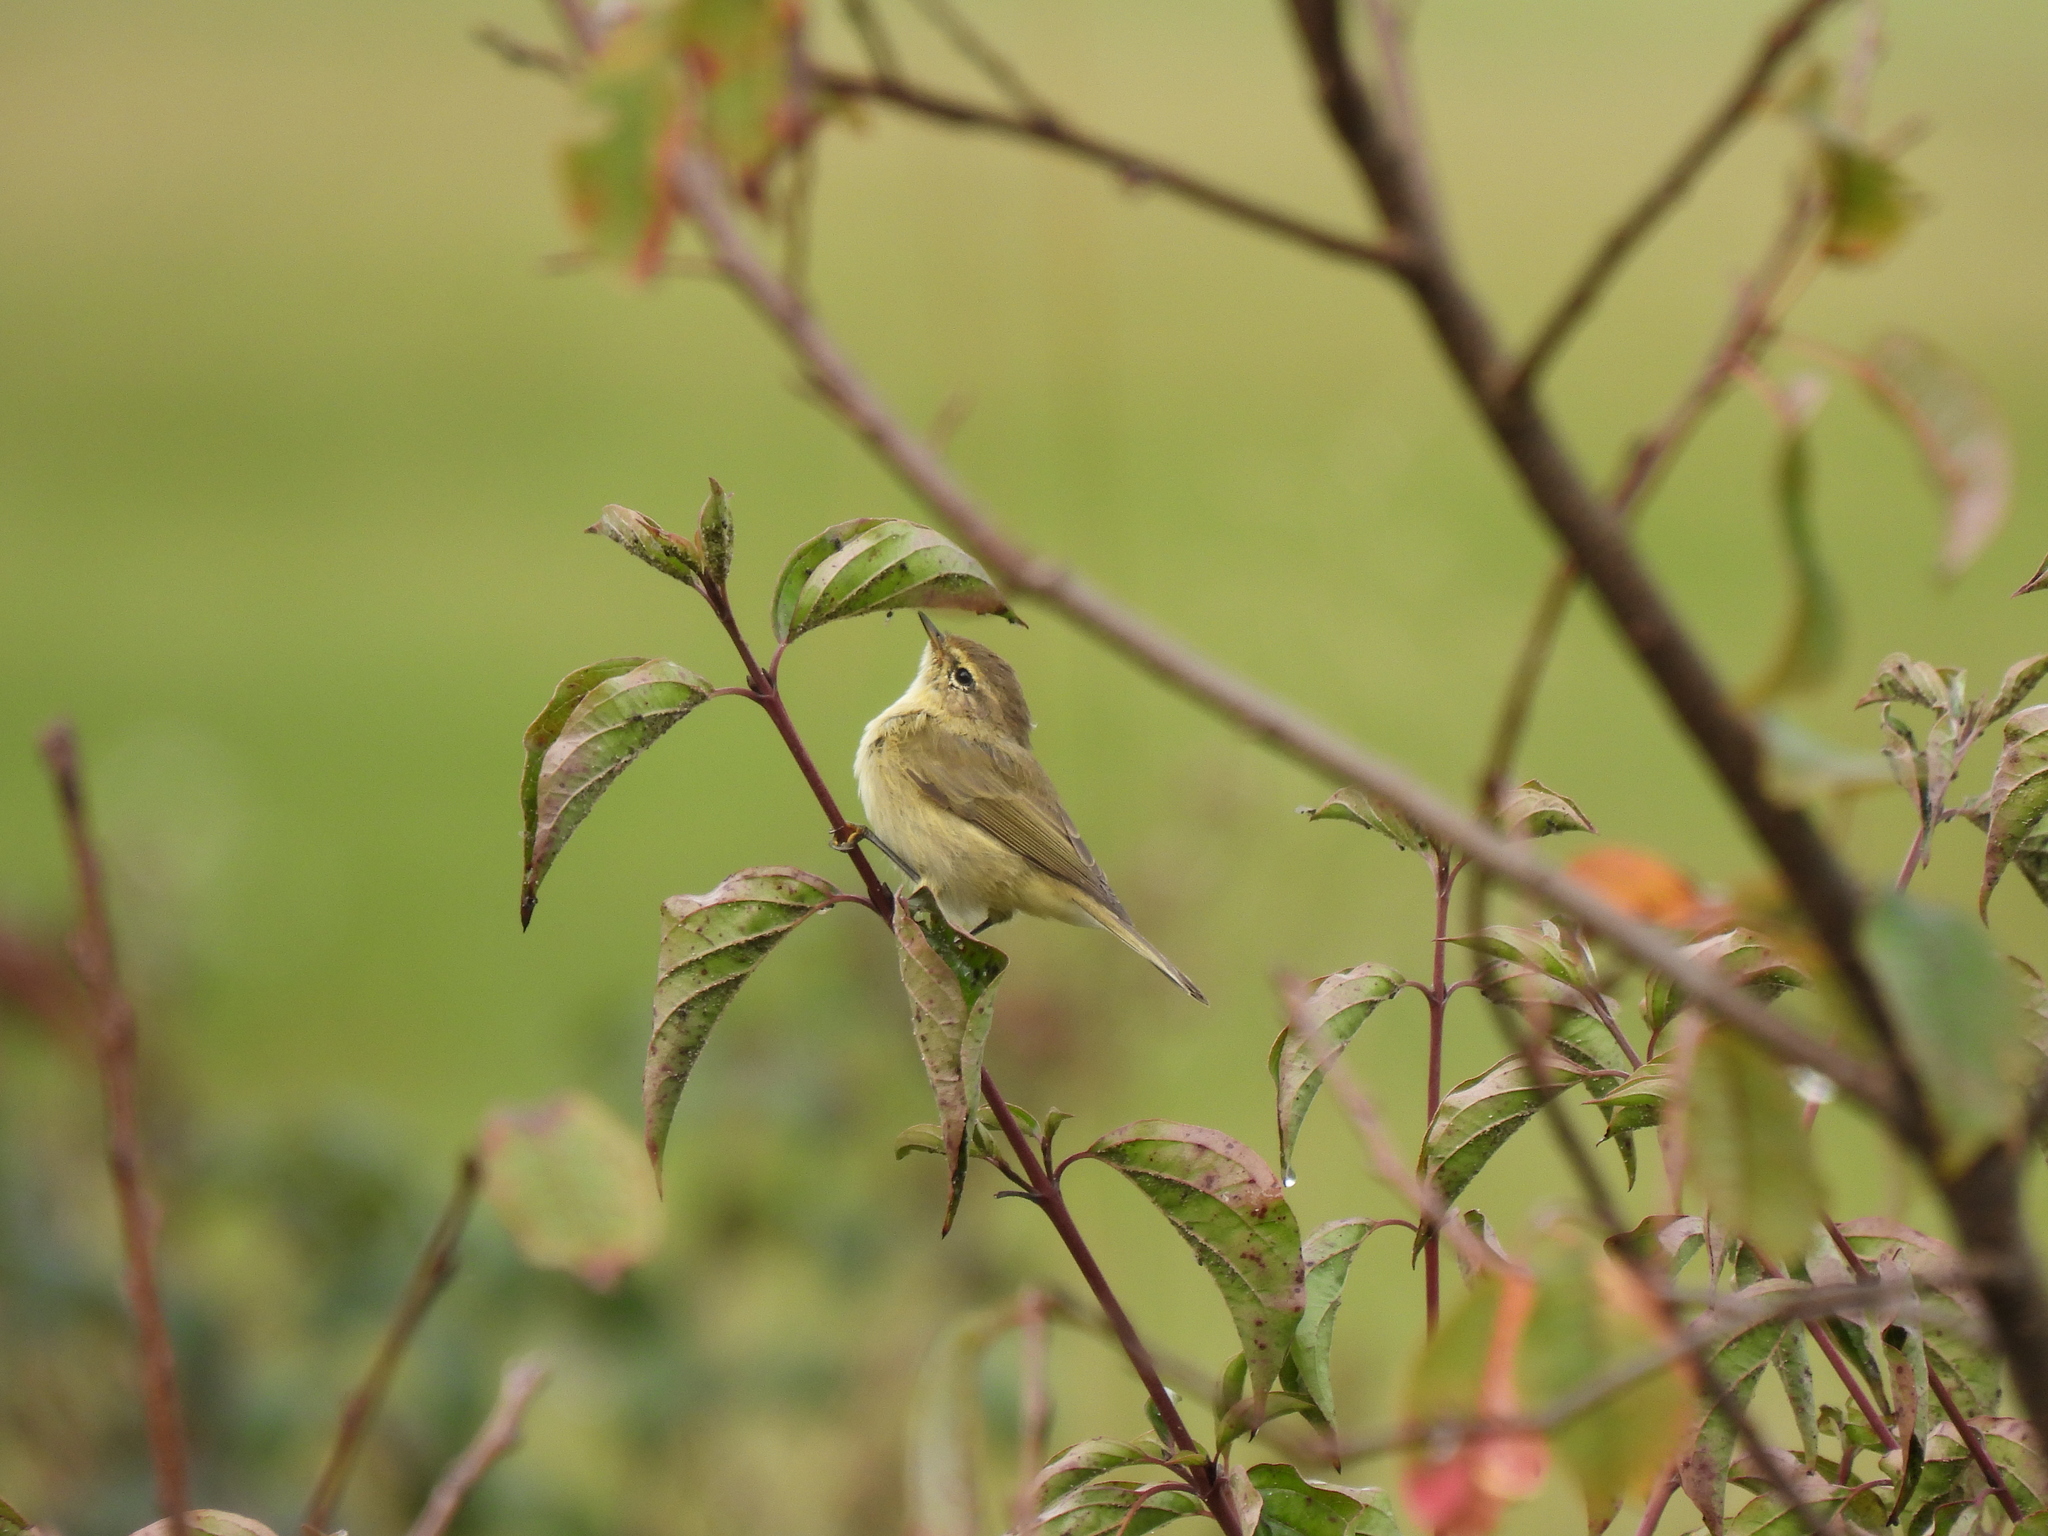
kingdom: Animalia
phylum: Chordata
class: Aves
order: Passeriformes
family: Phylloscopidae
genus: Phylloscopus
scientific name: Phylloscopus collybita
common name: Common chiffchaff
